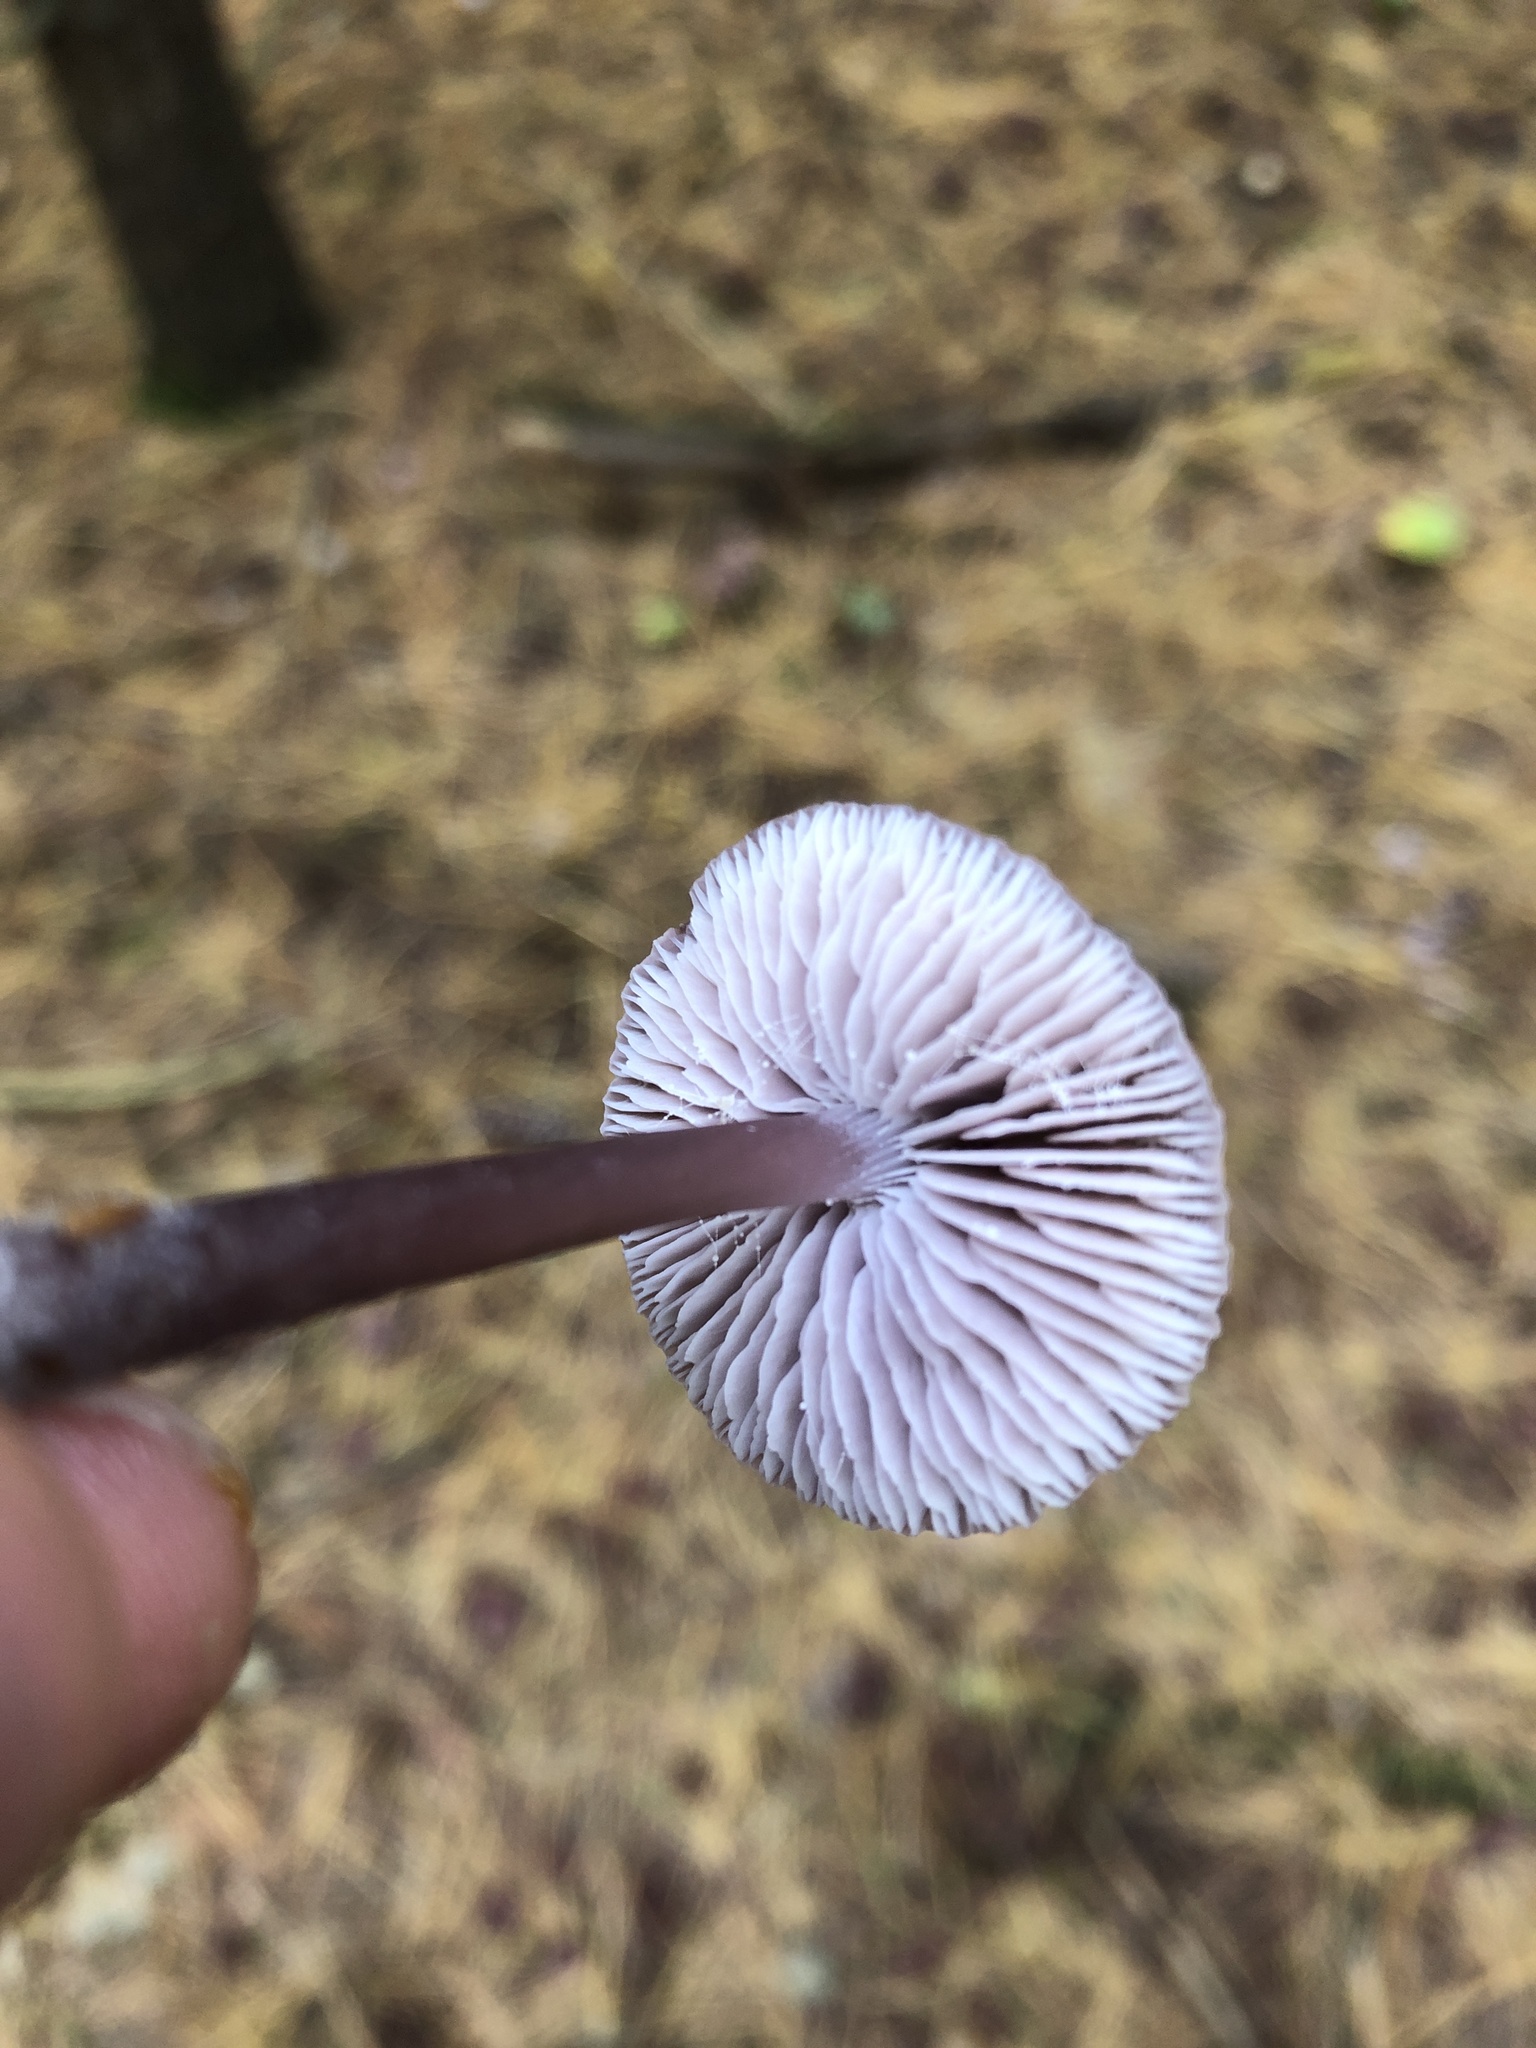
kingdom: Fungi
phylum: Basidiomycota
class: Agaricomycetes
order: Agaricales
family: Mycenaceae
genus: Mycena
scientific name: Mycena pura
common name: Lilac bonnet
